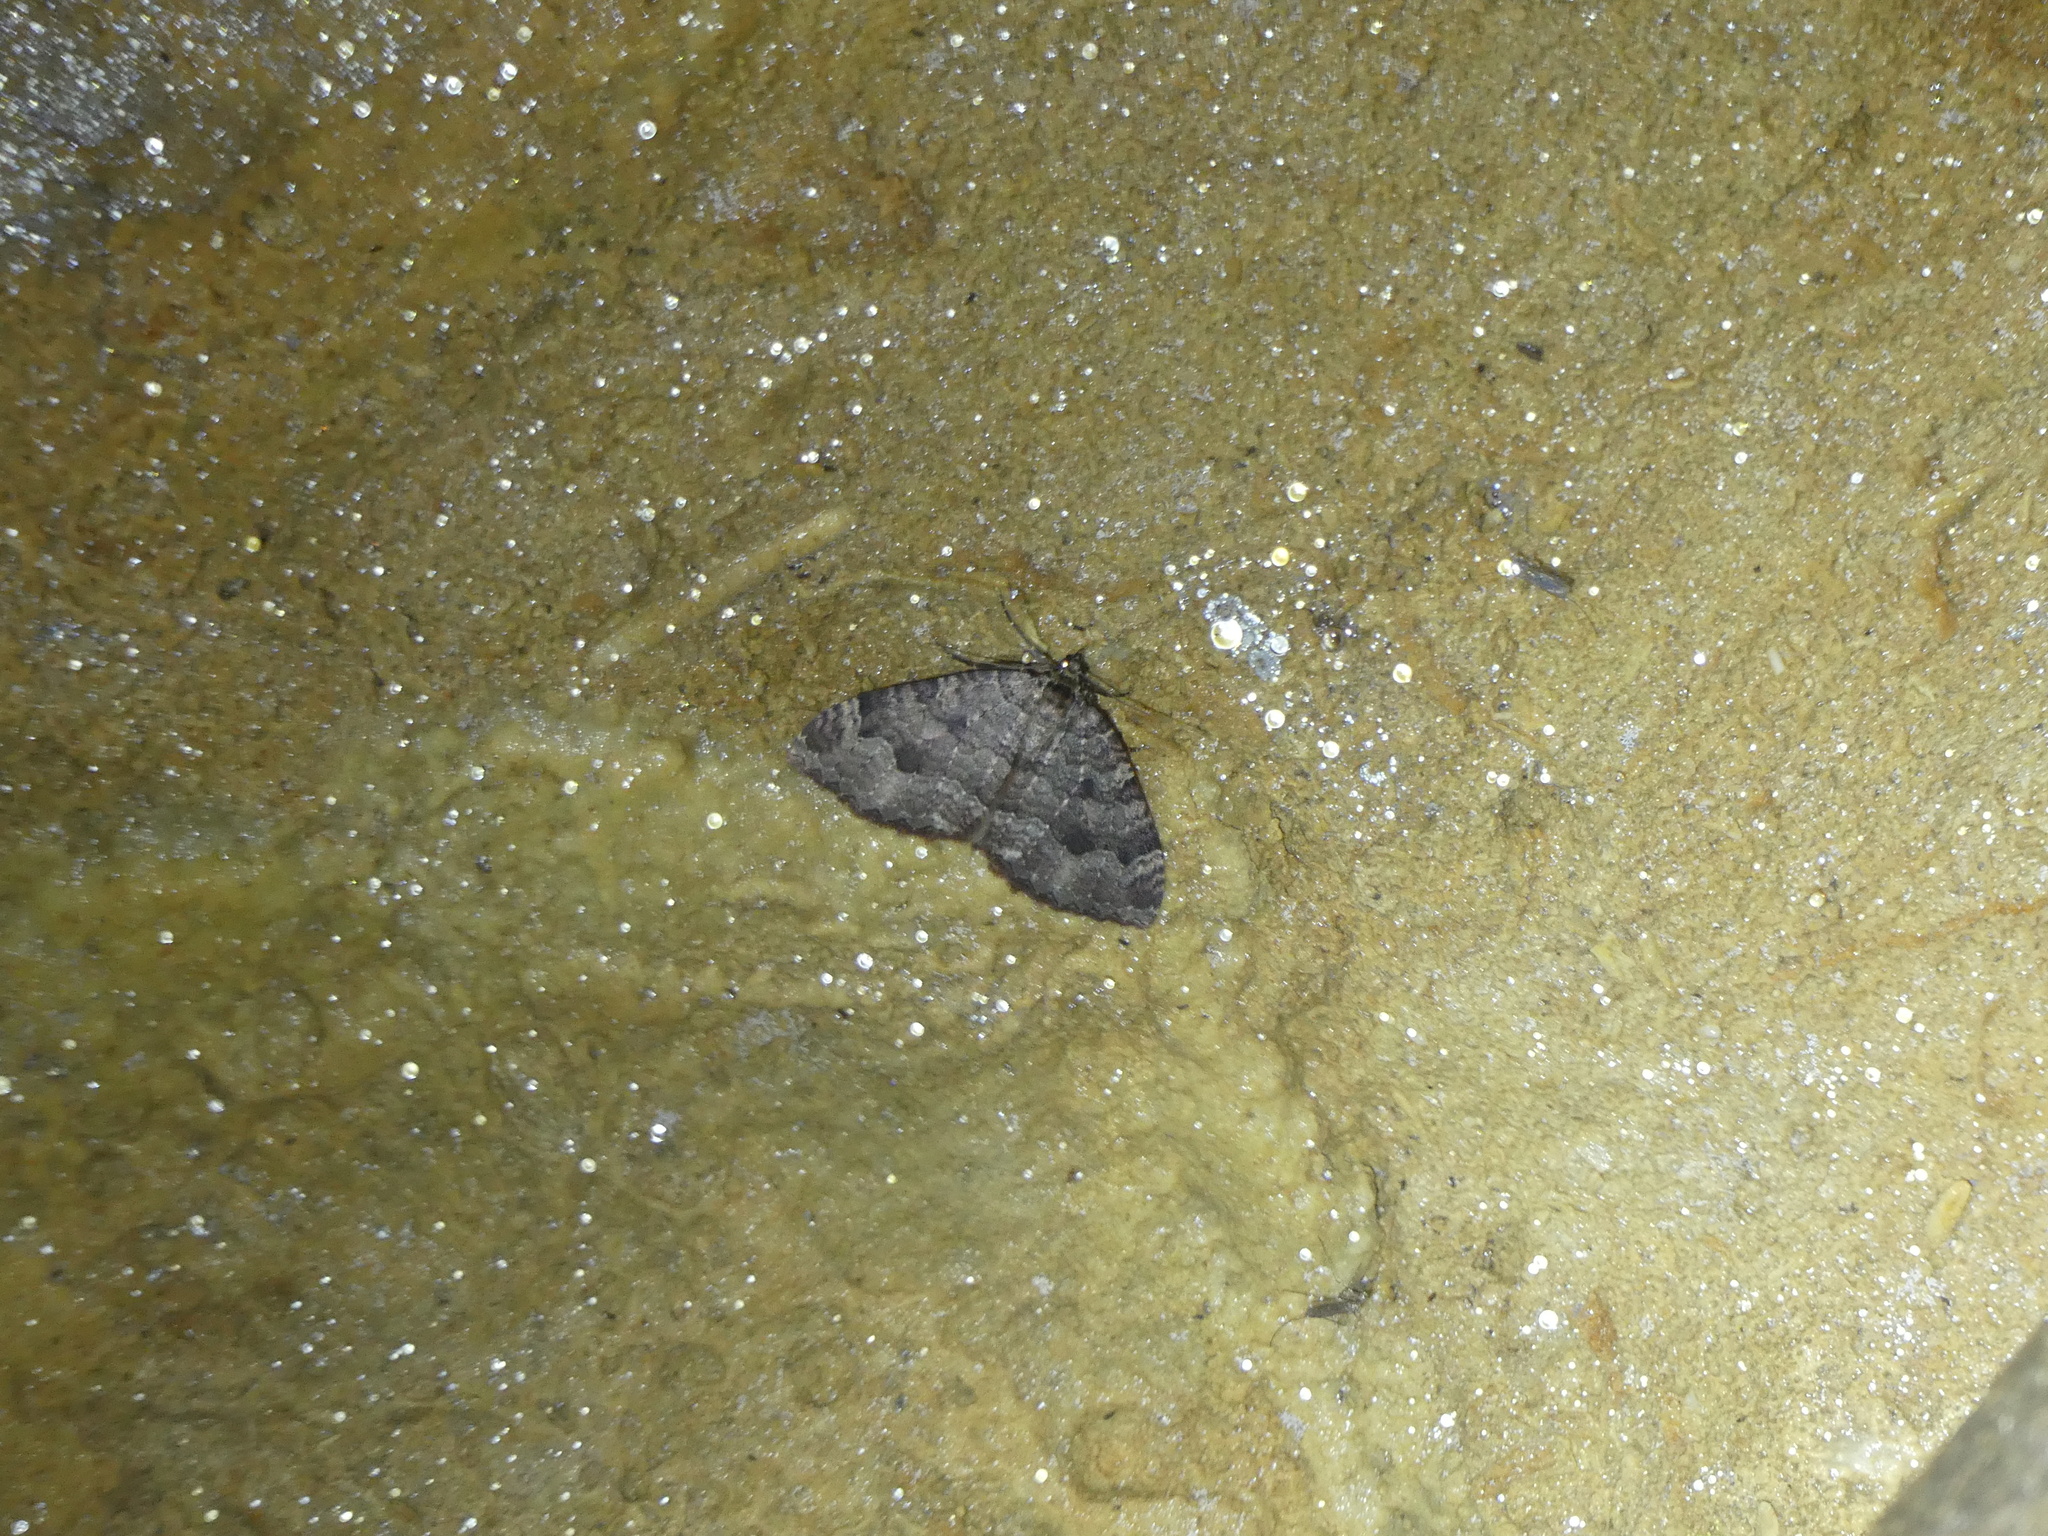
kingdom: Animalia
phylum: Arthropoda
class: Insecta
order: Lepidoptera
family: Geometridae
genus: Triphosa
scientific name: Triphosa dubitata
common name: Tissue
